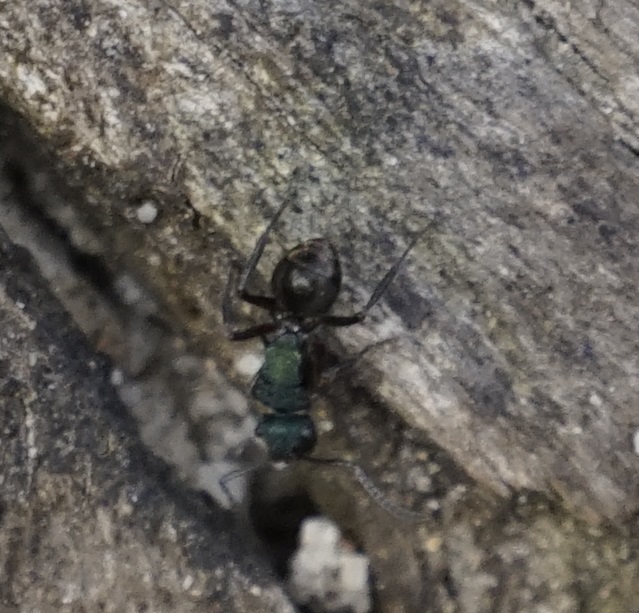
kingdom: Animalia
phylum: Arthropoda
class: Insecta
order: Hymenoptera
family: Formicidae
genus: Polyrhachis
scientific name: Polyrhachis hookeri
